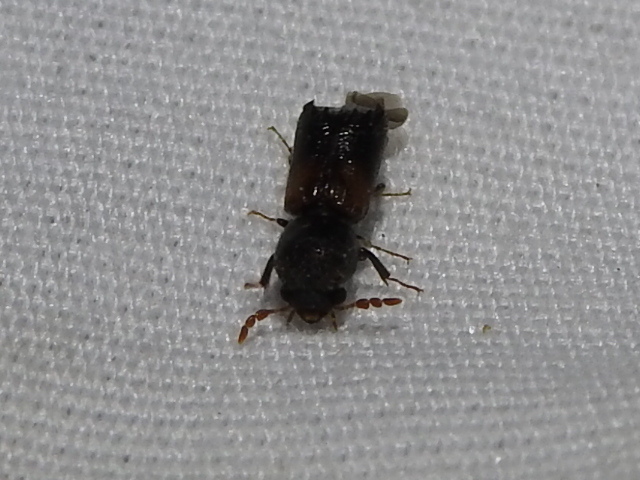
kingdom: Animalia
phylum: Arthropoda
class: Insecta
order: Coleoptera
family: Bostrichidae
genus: Xylobiops
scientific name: Xylobiops basilaris
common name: Red-shouldered bostrichid
